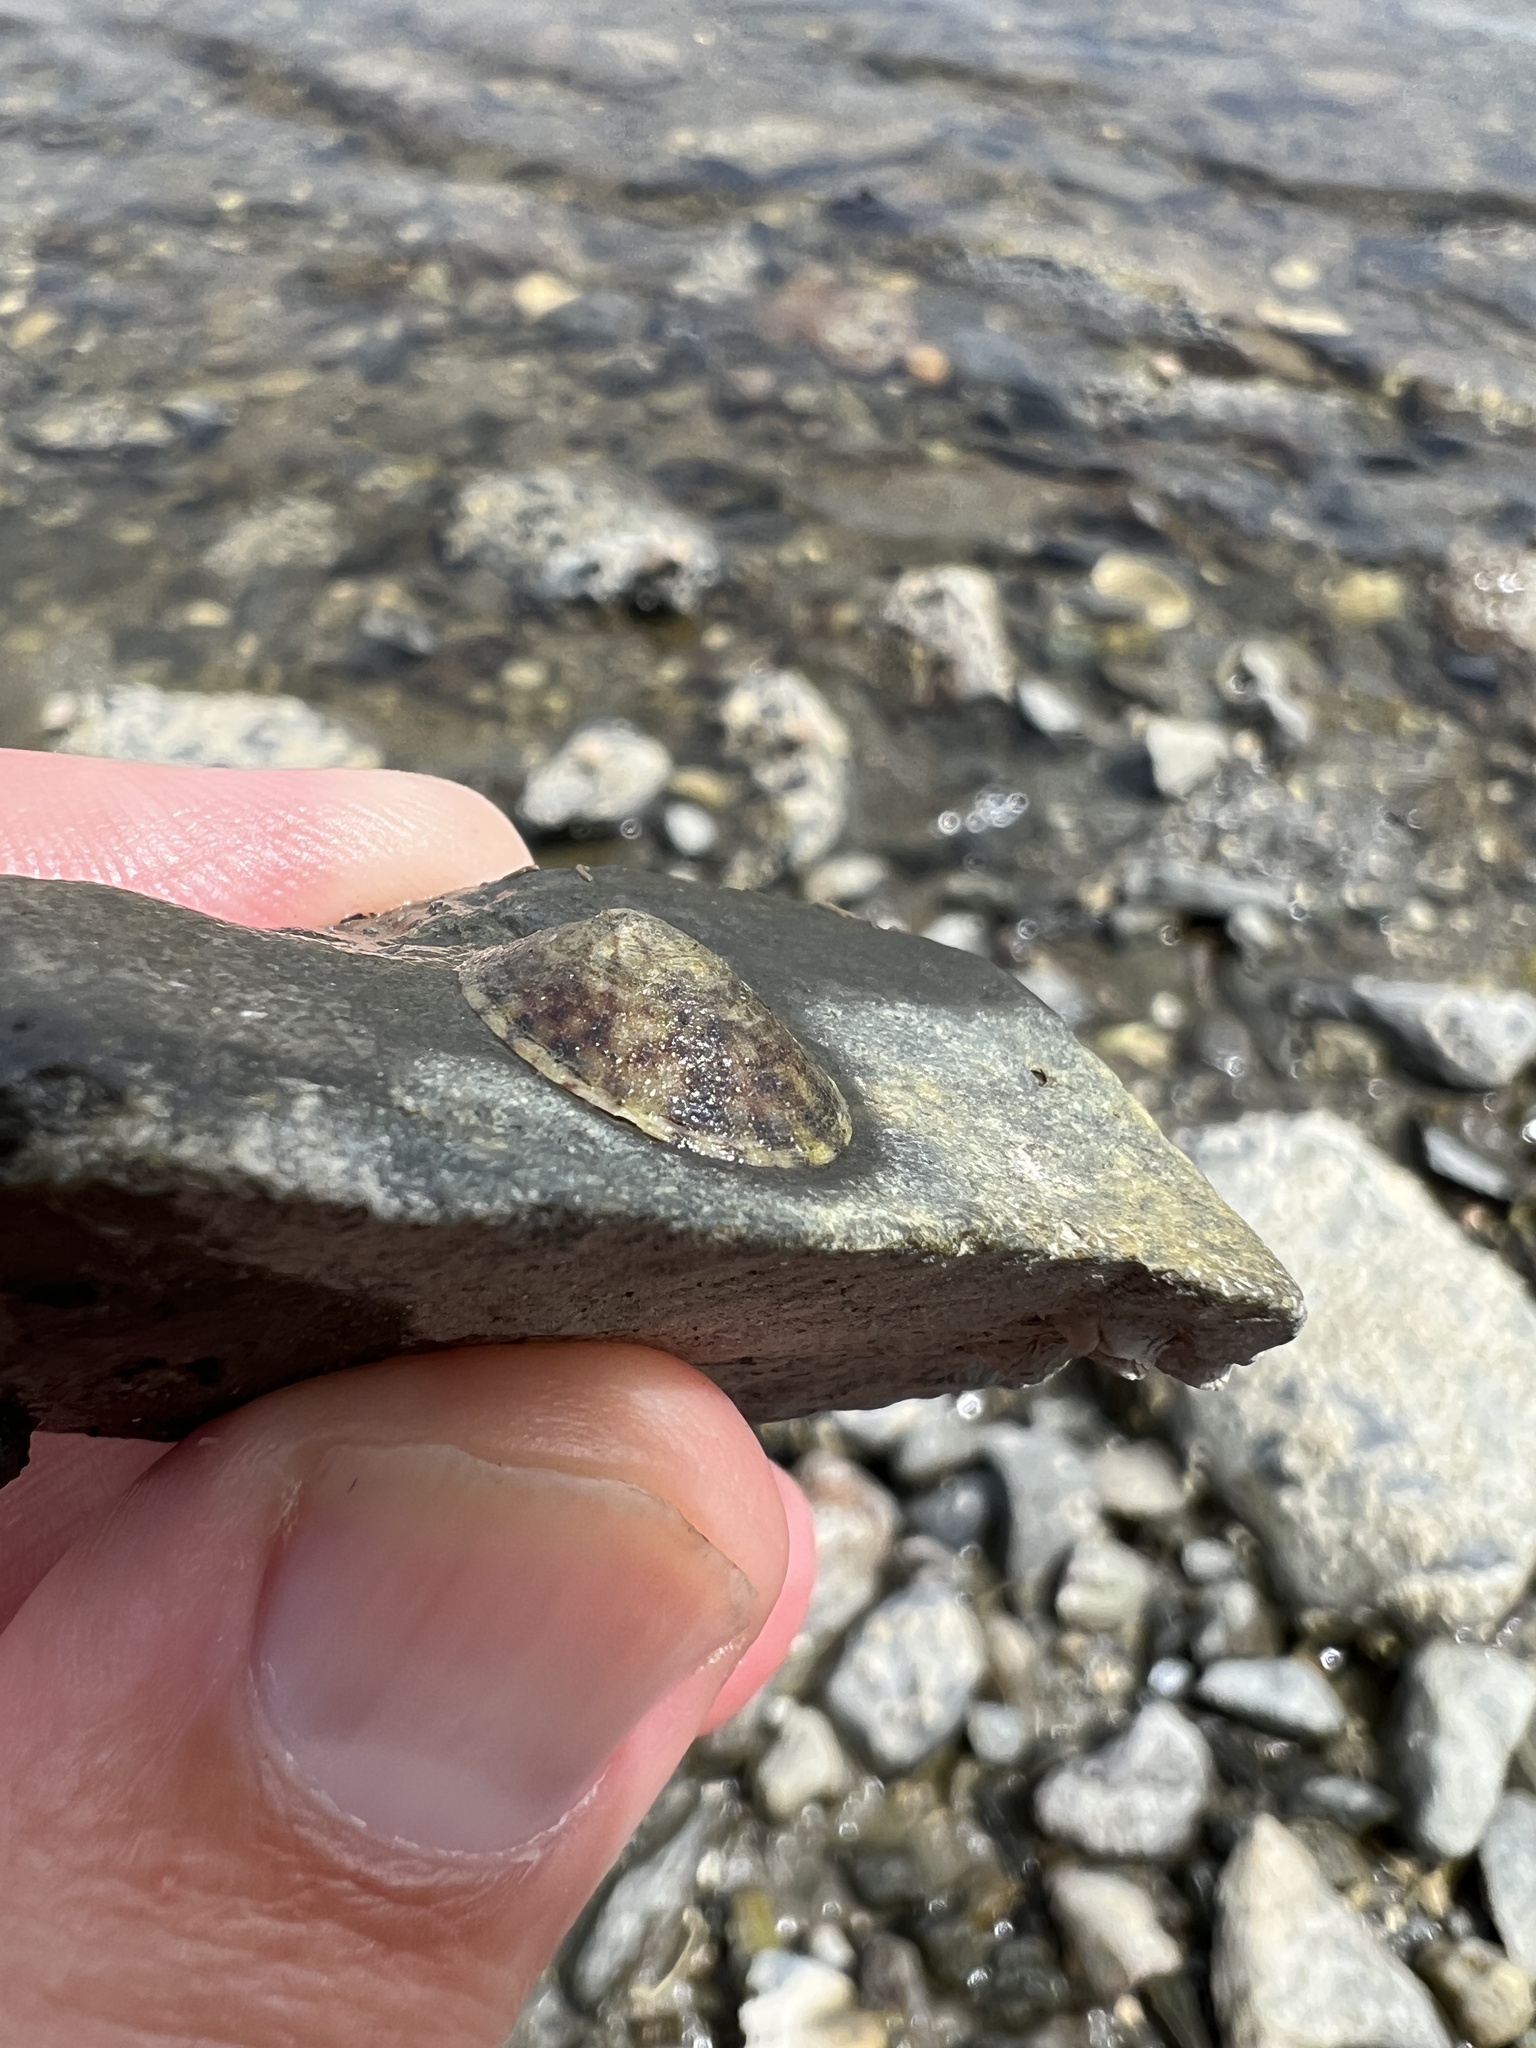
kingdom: Animalia
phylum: Mollusca
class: Gastropoda
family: Lottiidae
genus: Testudinalia
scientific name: Testudinalia testudinalis
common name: Common tortoiseshell limpet
